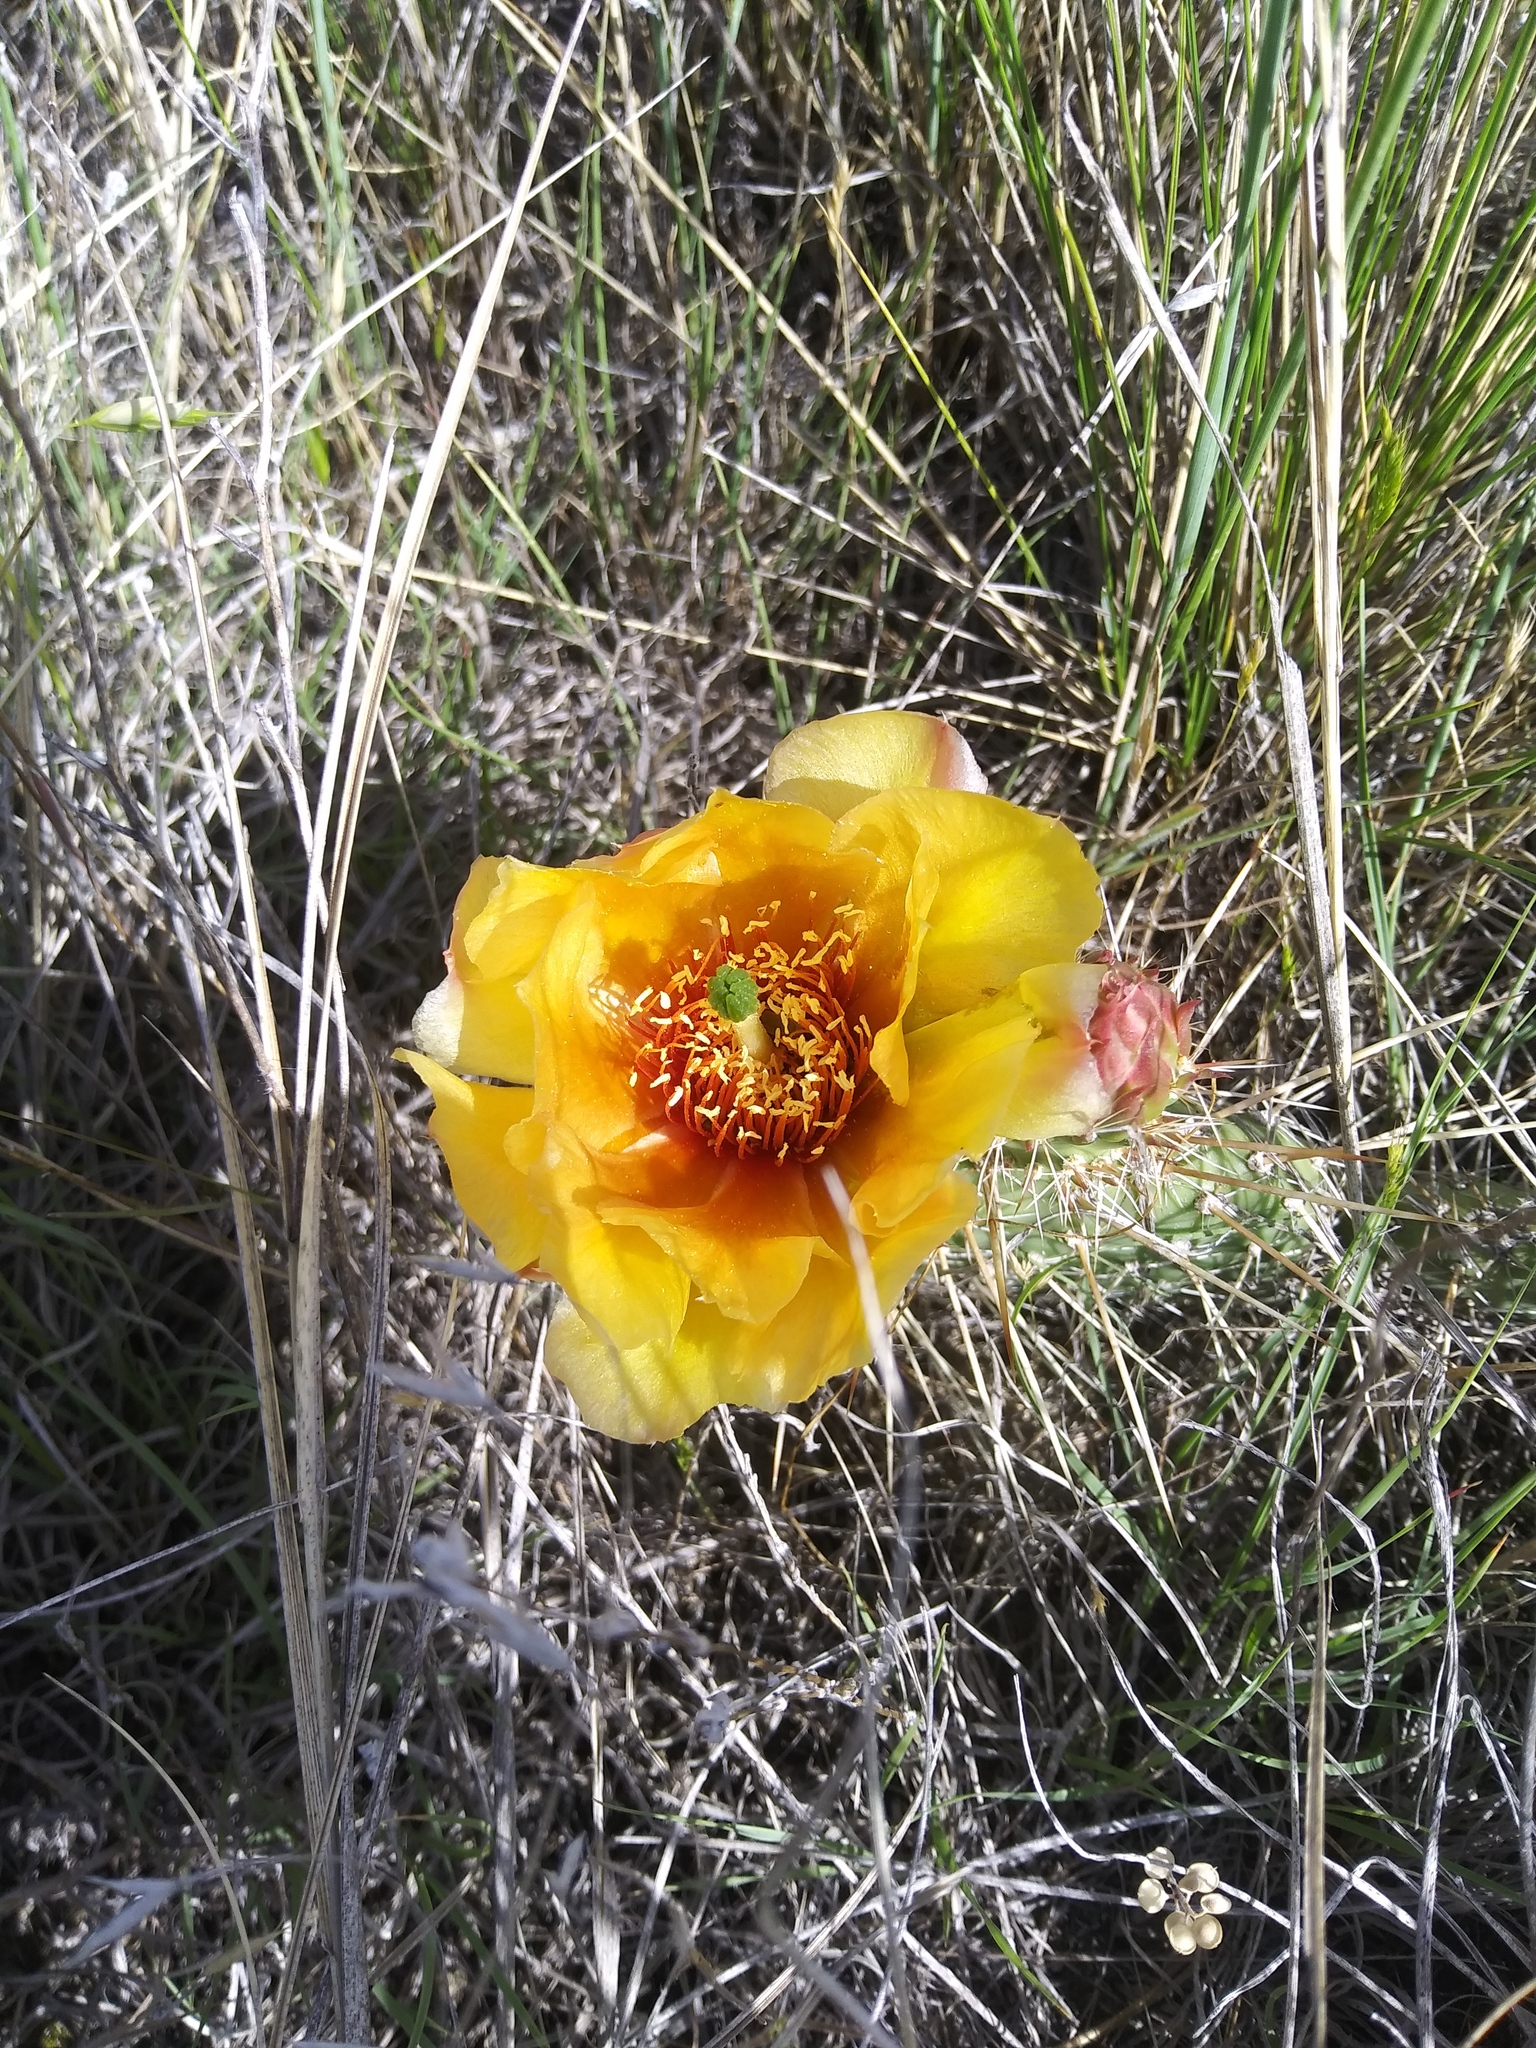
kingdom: Plantae
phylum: Tracheophyta
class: Magnoliopsida
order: Caryophyllales
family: Cactaceae
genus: Opuntia
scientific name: Opuntia polyacantha
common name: Plains prickly-pear
